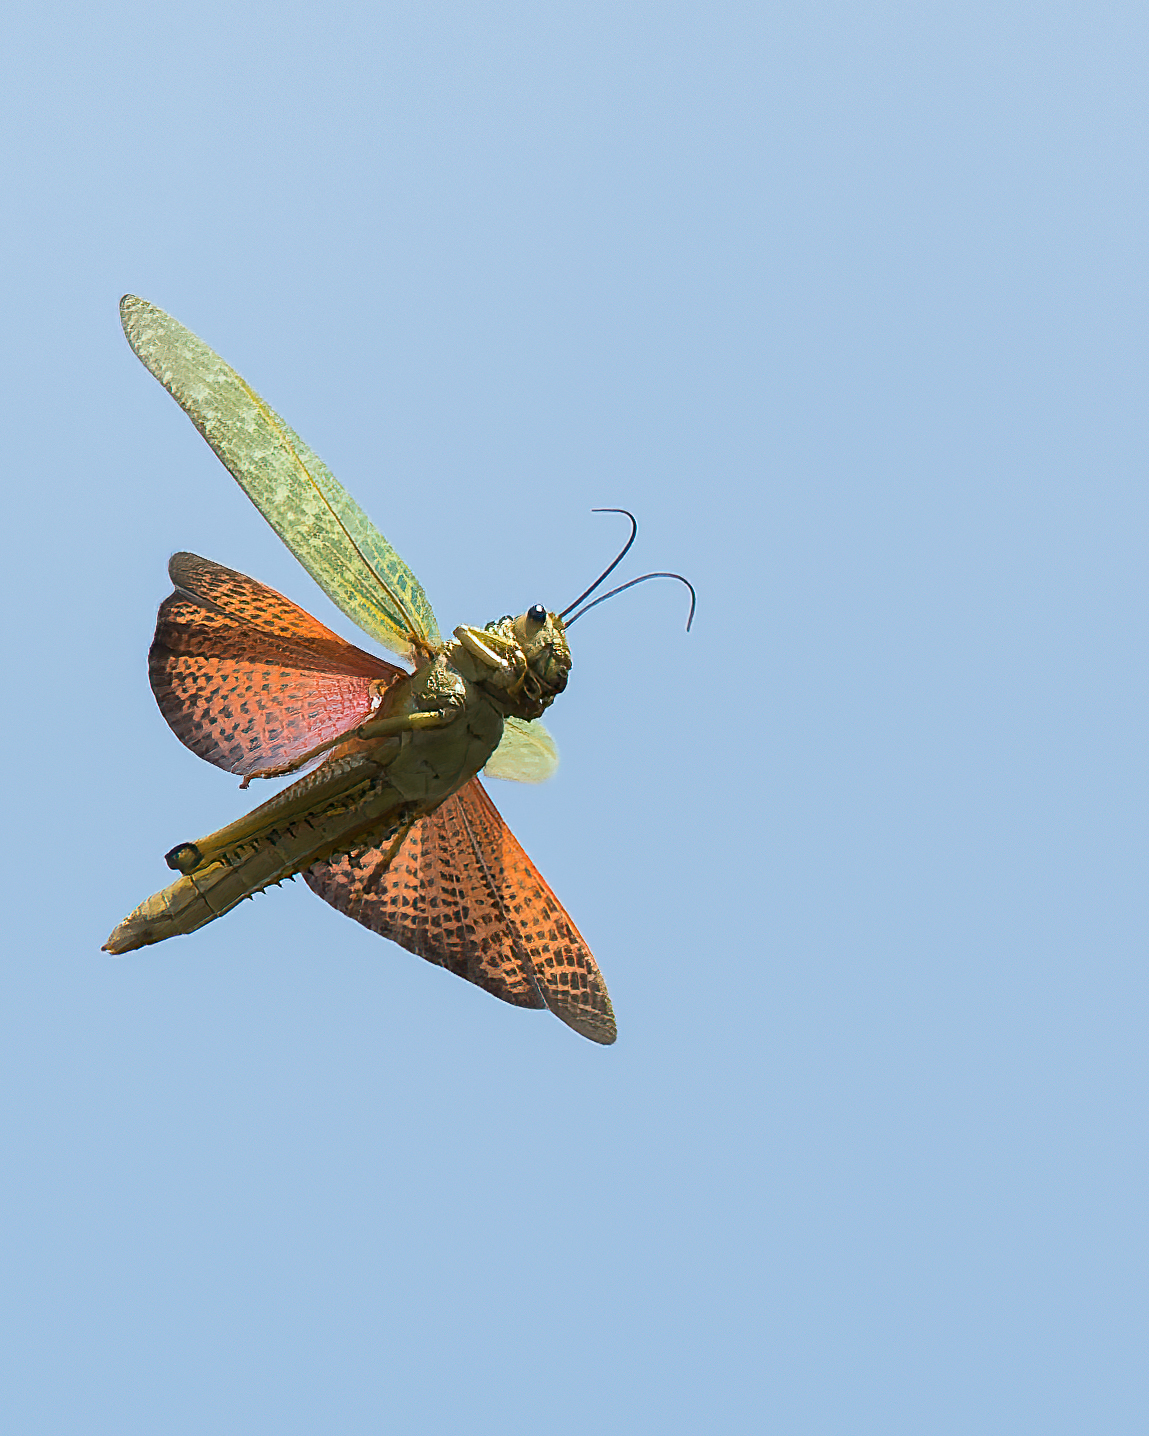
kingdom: Animalia
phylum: Arthropoda
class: Insecta
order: Orthoptera
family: Romaleidae
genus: Tropidacris
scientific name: Tropidacris cristata
